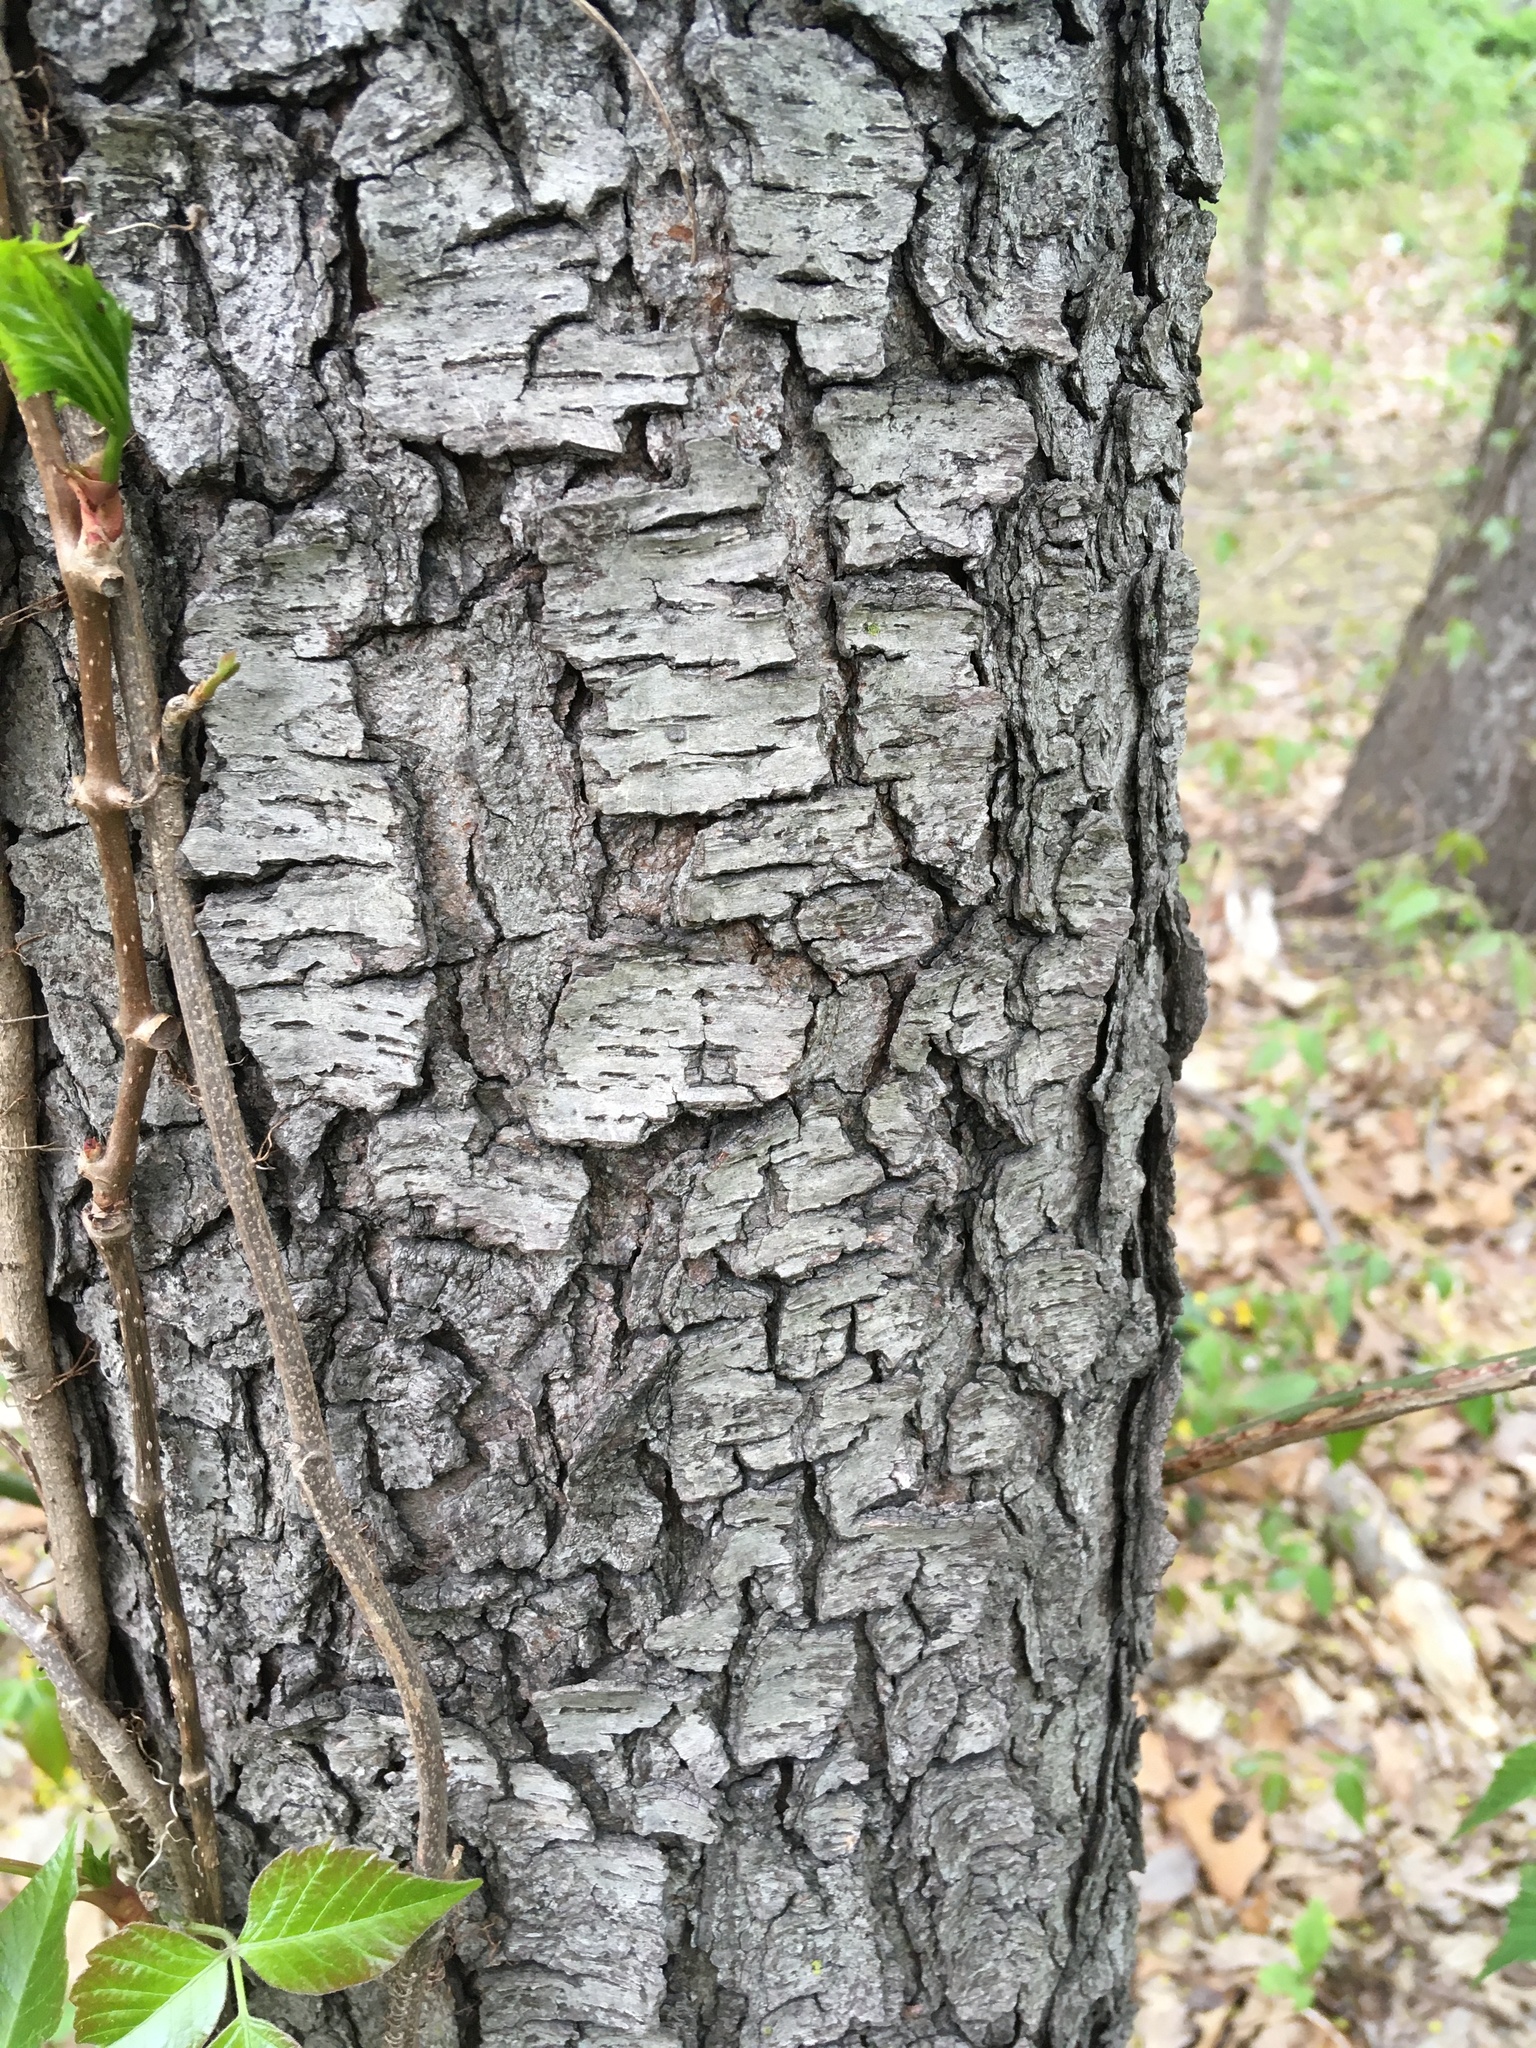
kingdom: Plantae
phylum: Tracheophyta
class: Magnoliopsida
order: Rosales
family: Rosaceae
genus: Prunus
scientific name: Prunus serotina
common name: Black cherry
